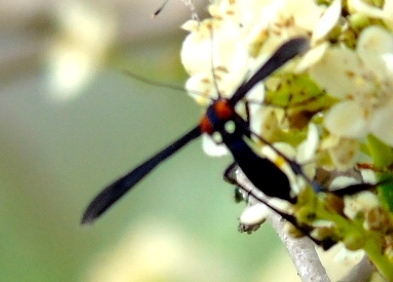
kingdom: Animalia
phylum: Arthropoda
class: Insecta
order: Lepidoptera
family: Pterophoridae
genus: Hellinsia
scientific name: Hellinsia chamelai
